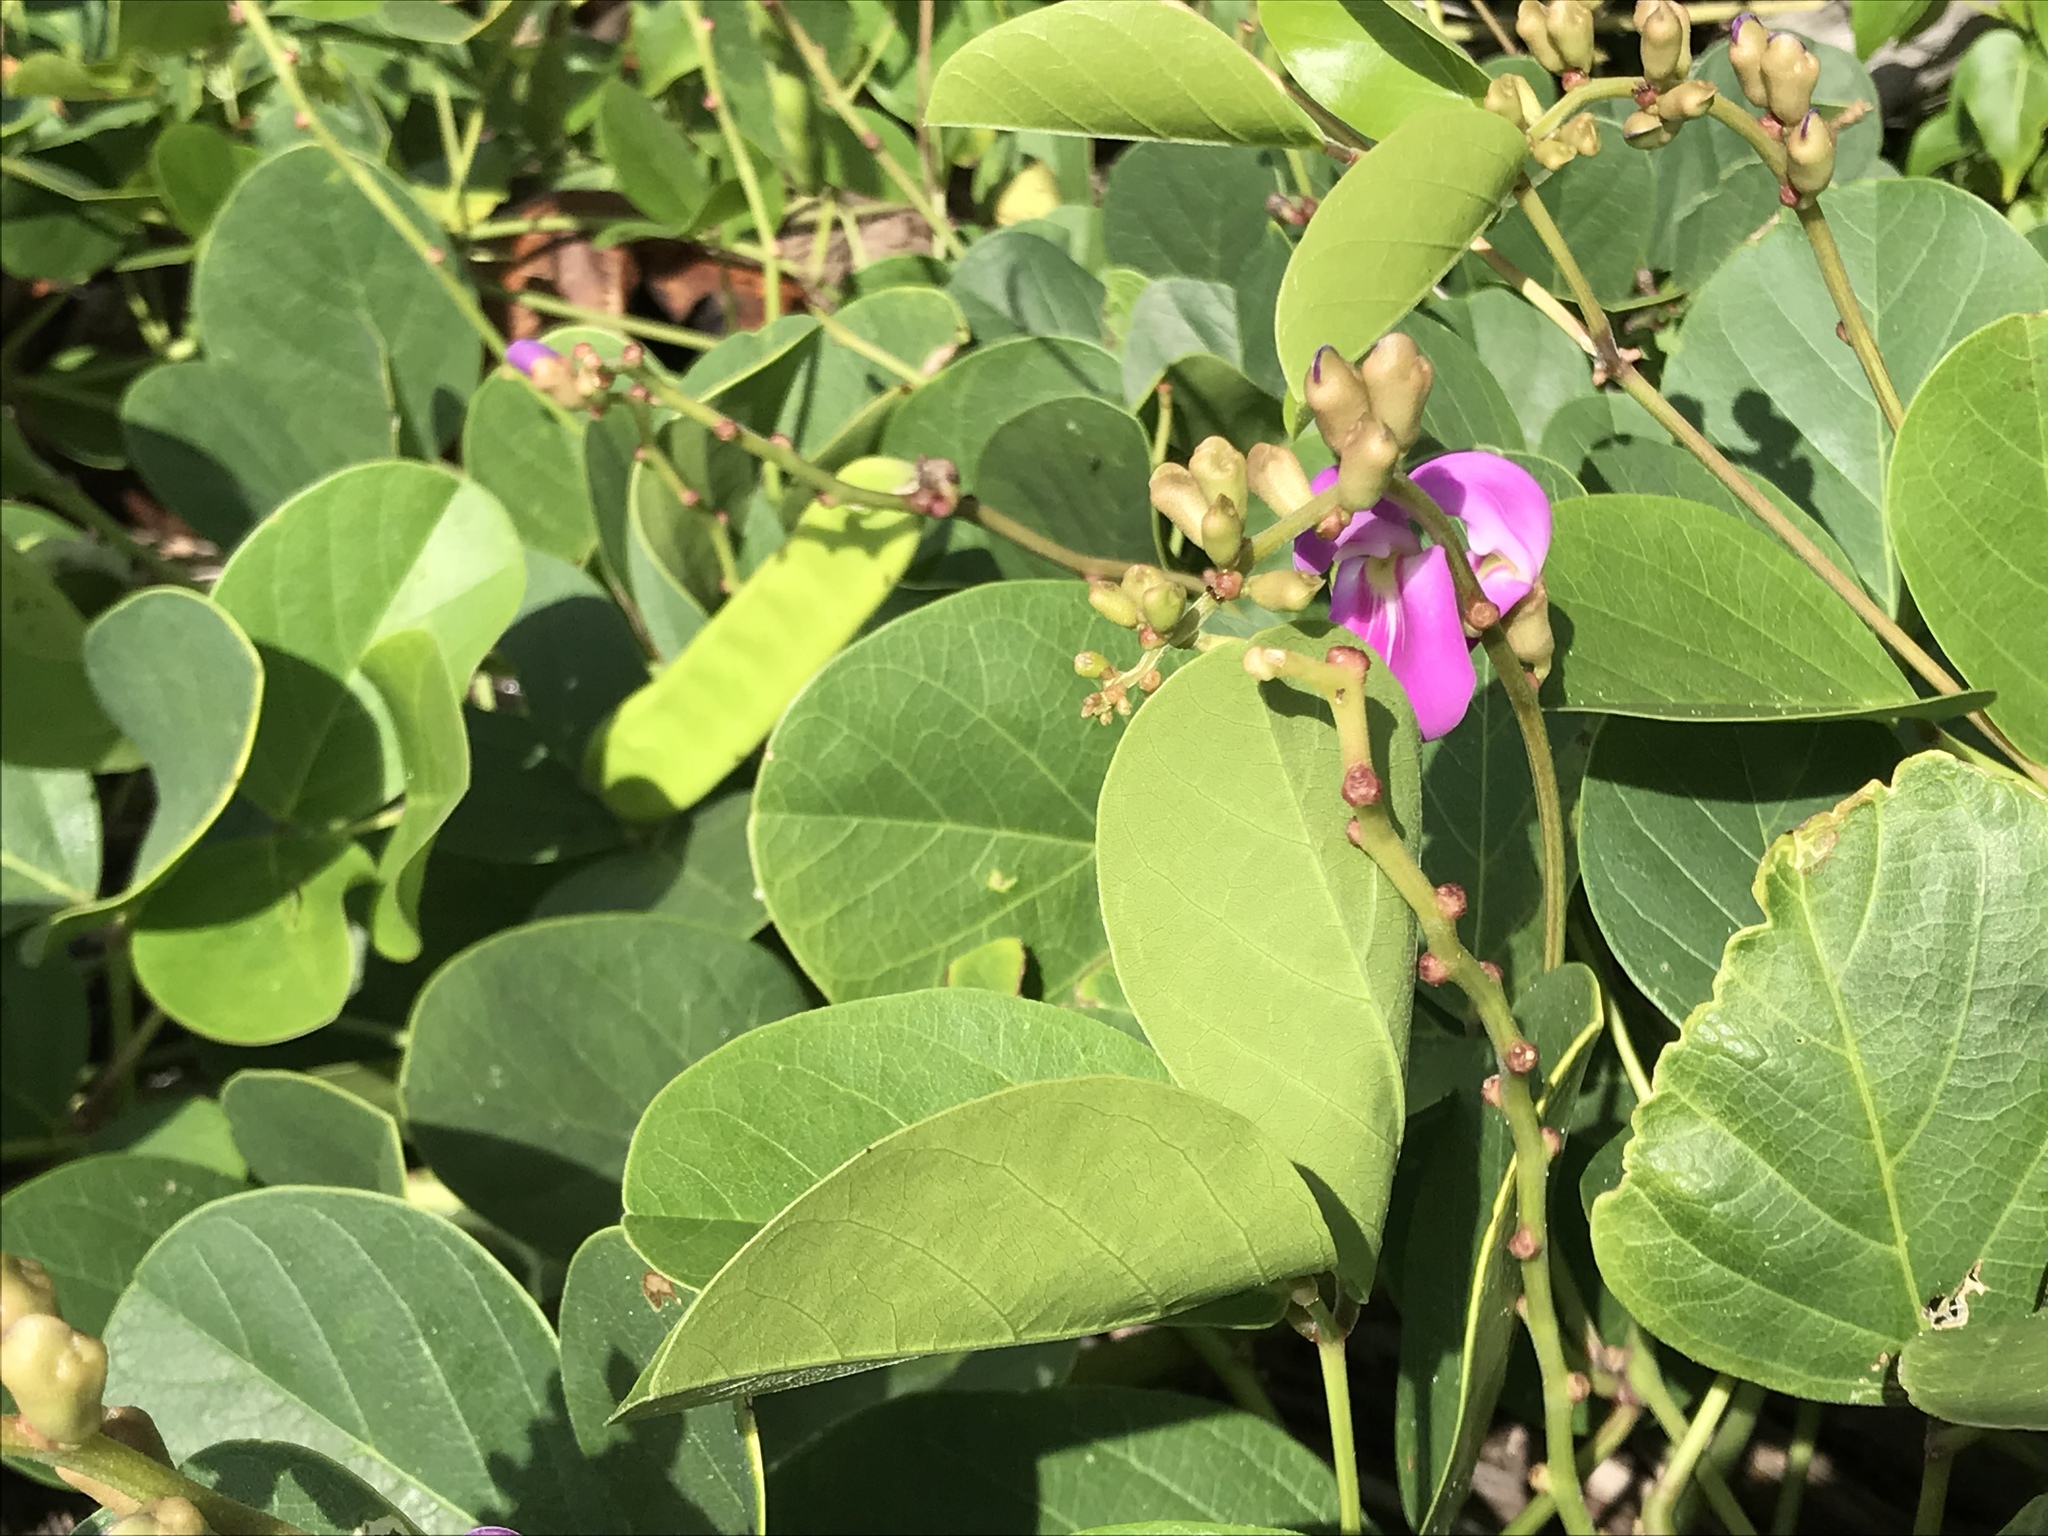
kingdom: Plantae
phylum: Tracheophyta
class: Magnoliopsida
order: Fabales
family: Fabaceae
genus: Canavalia
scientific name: Canavalia rosea
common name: Beach-bean
